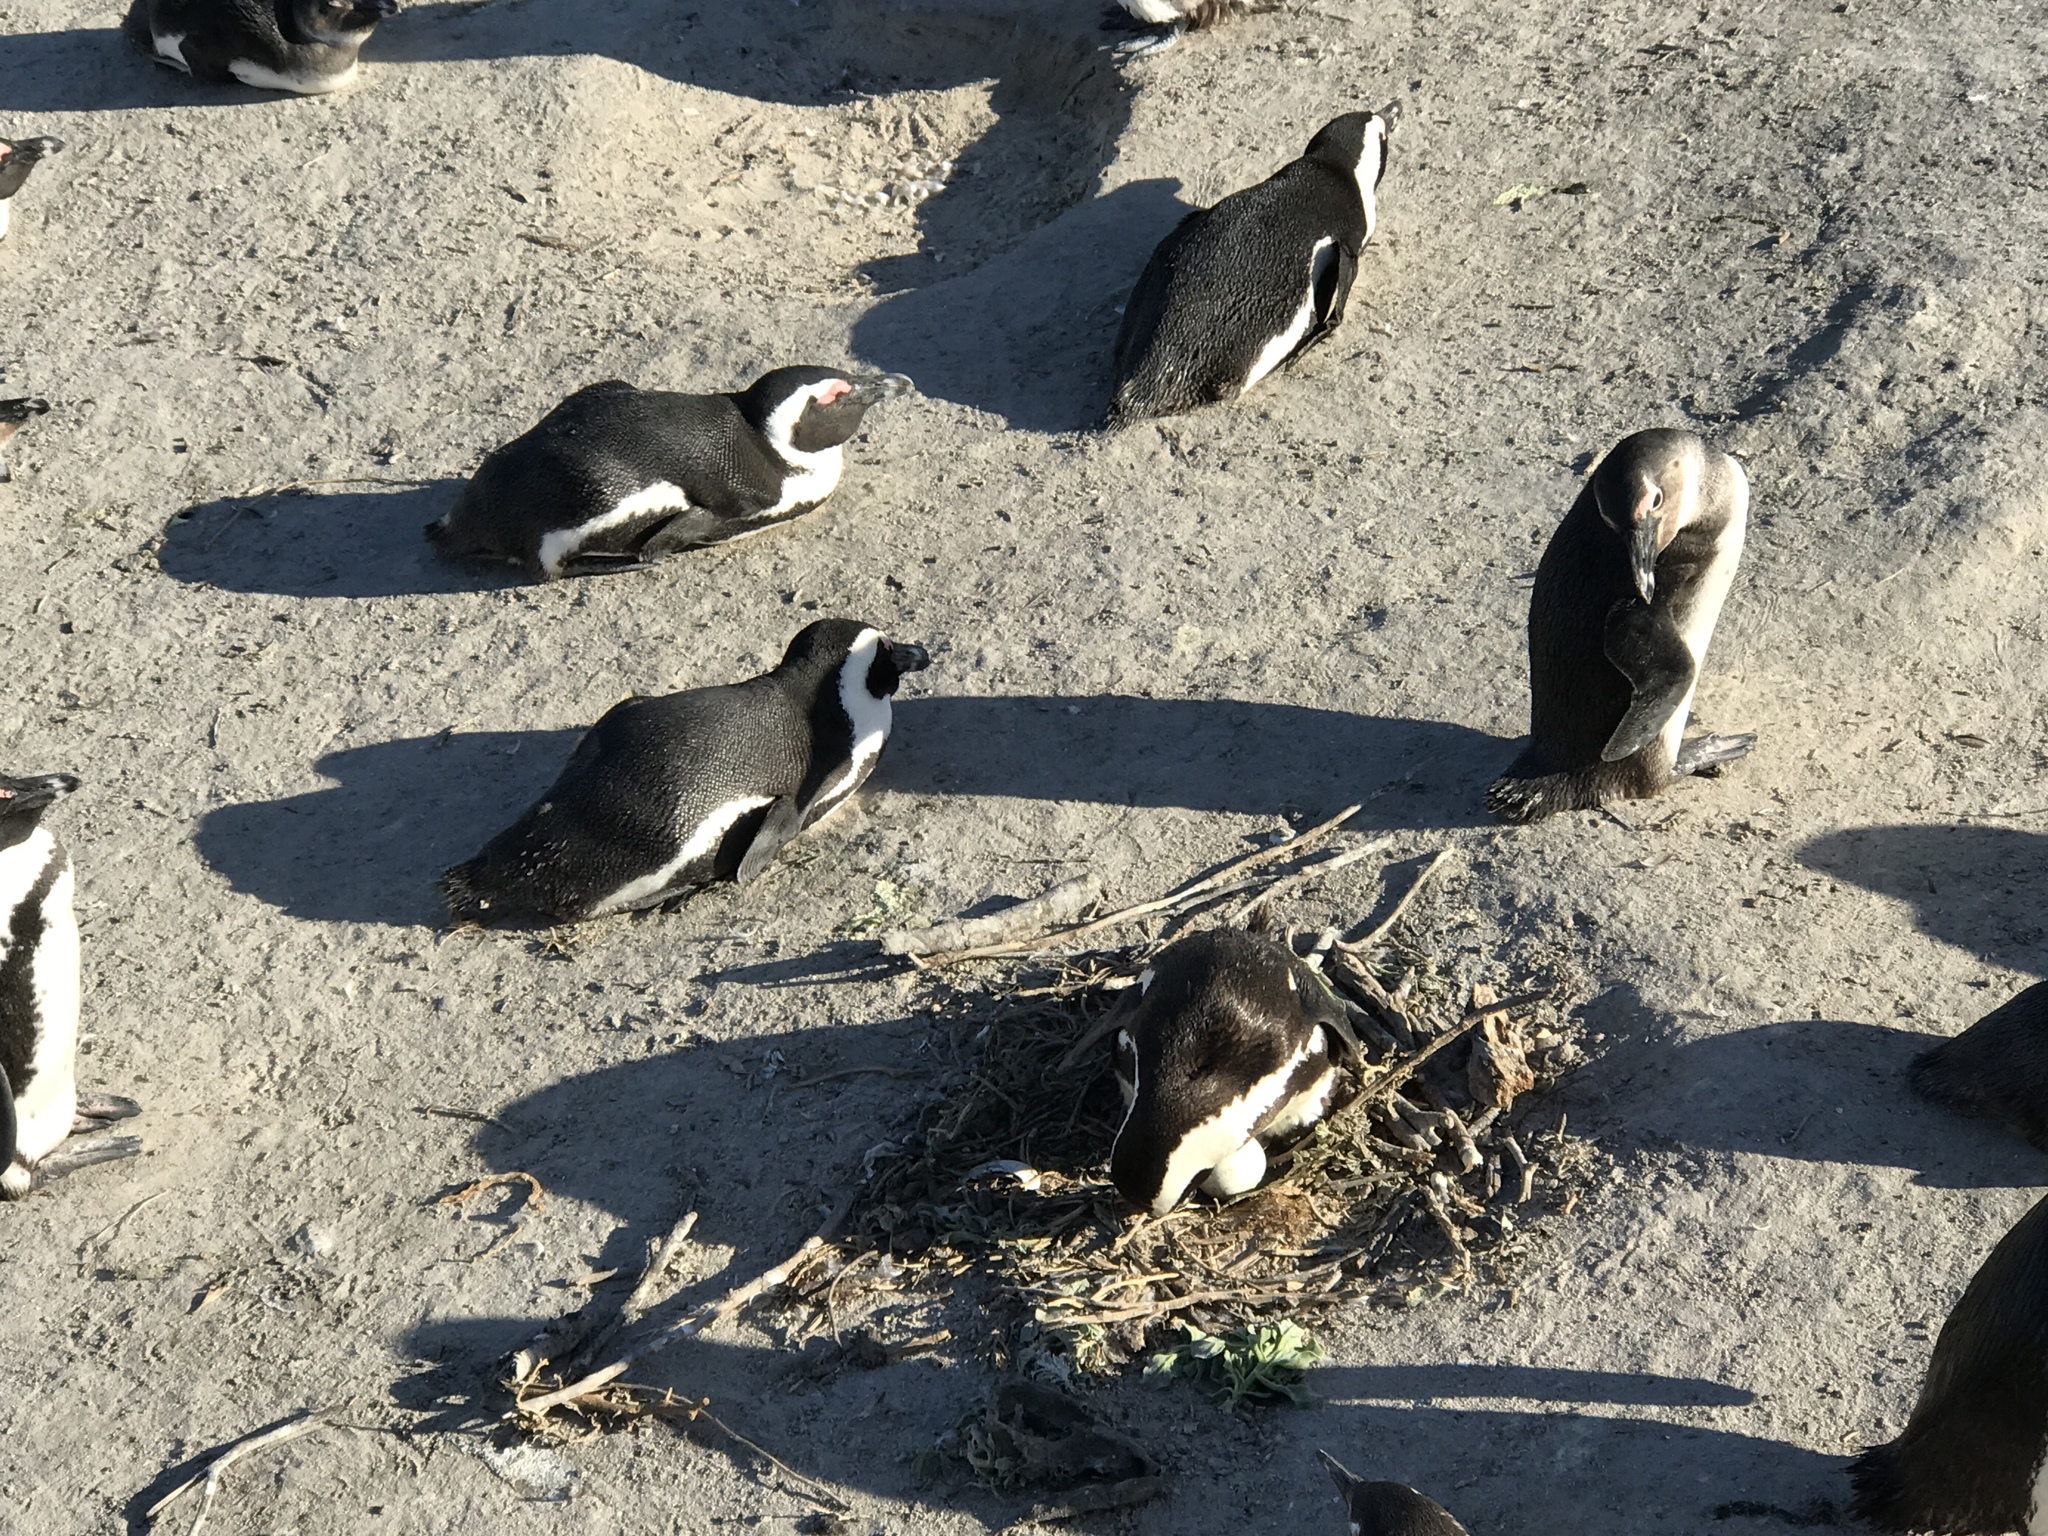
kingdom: Animalia
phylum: Chordata
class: Aves
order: Sphenisciformes
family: Spheniscidae
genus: Spheniscus
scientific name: Spheniscus demersus
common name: African penguin
